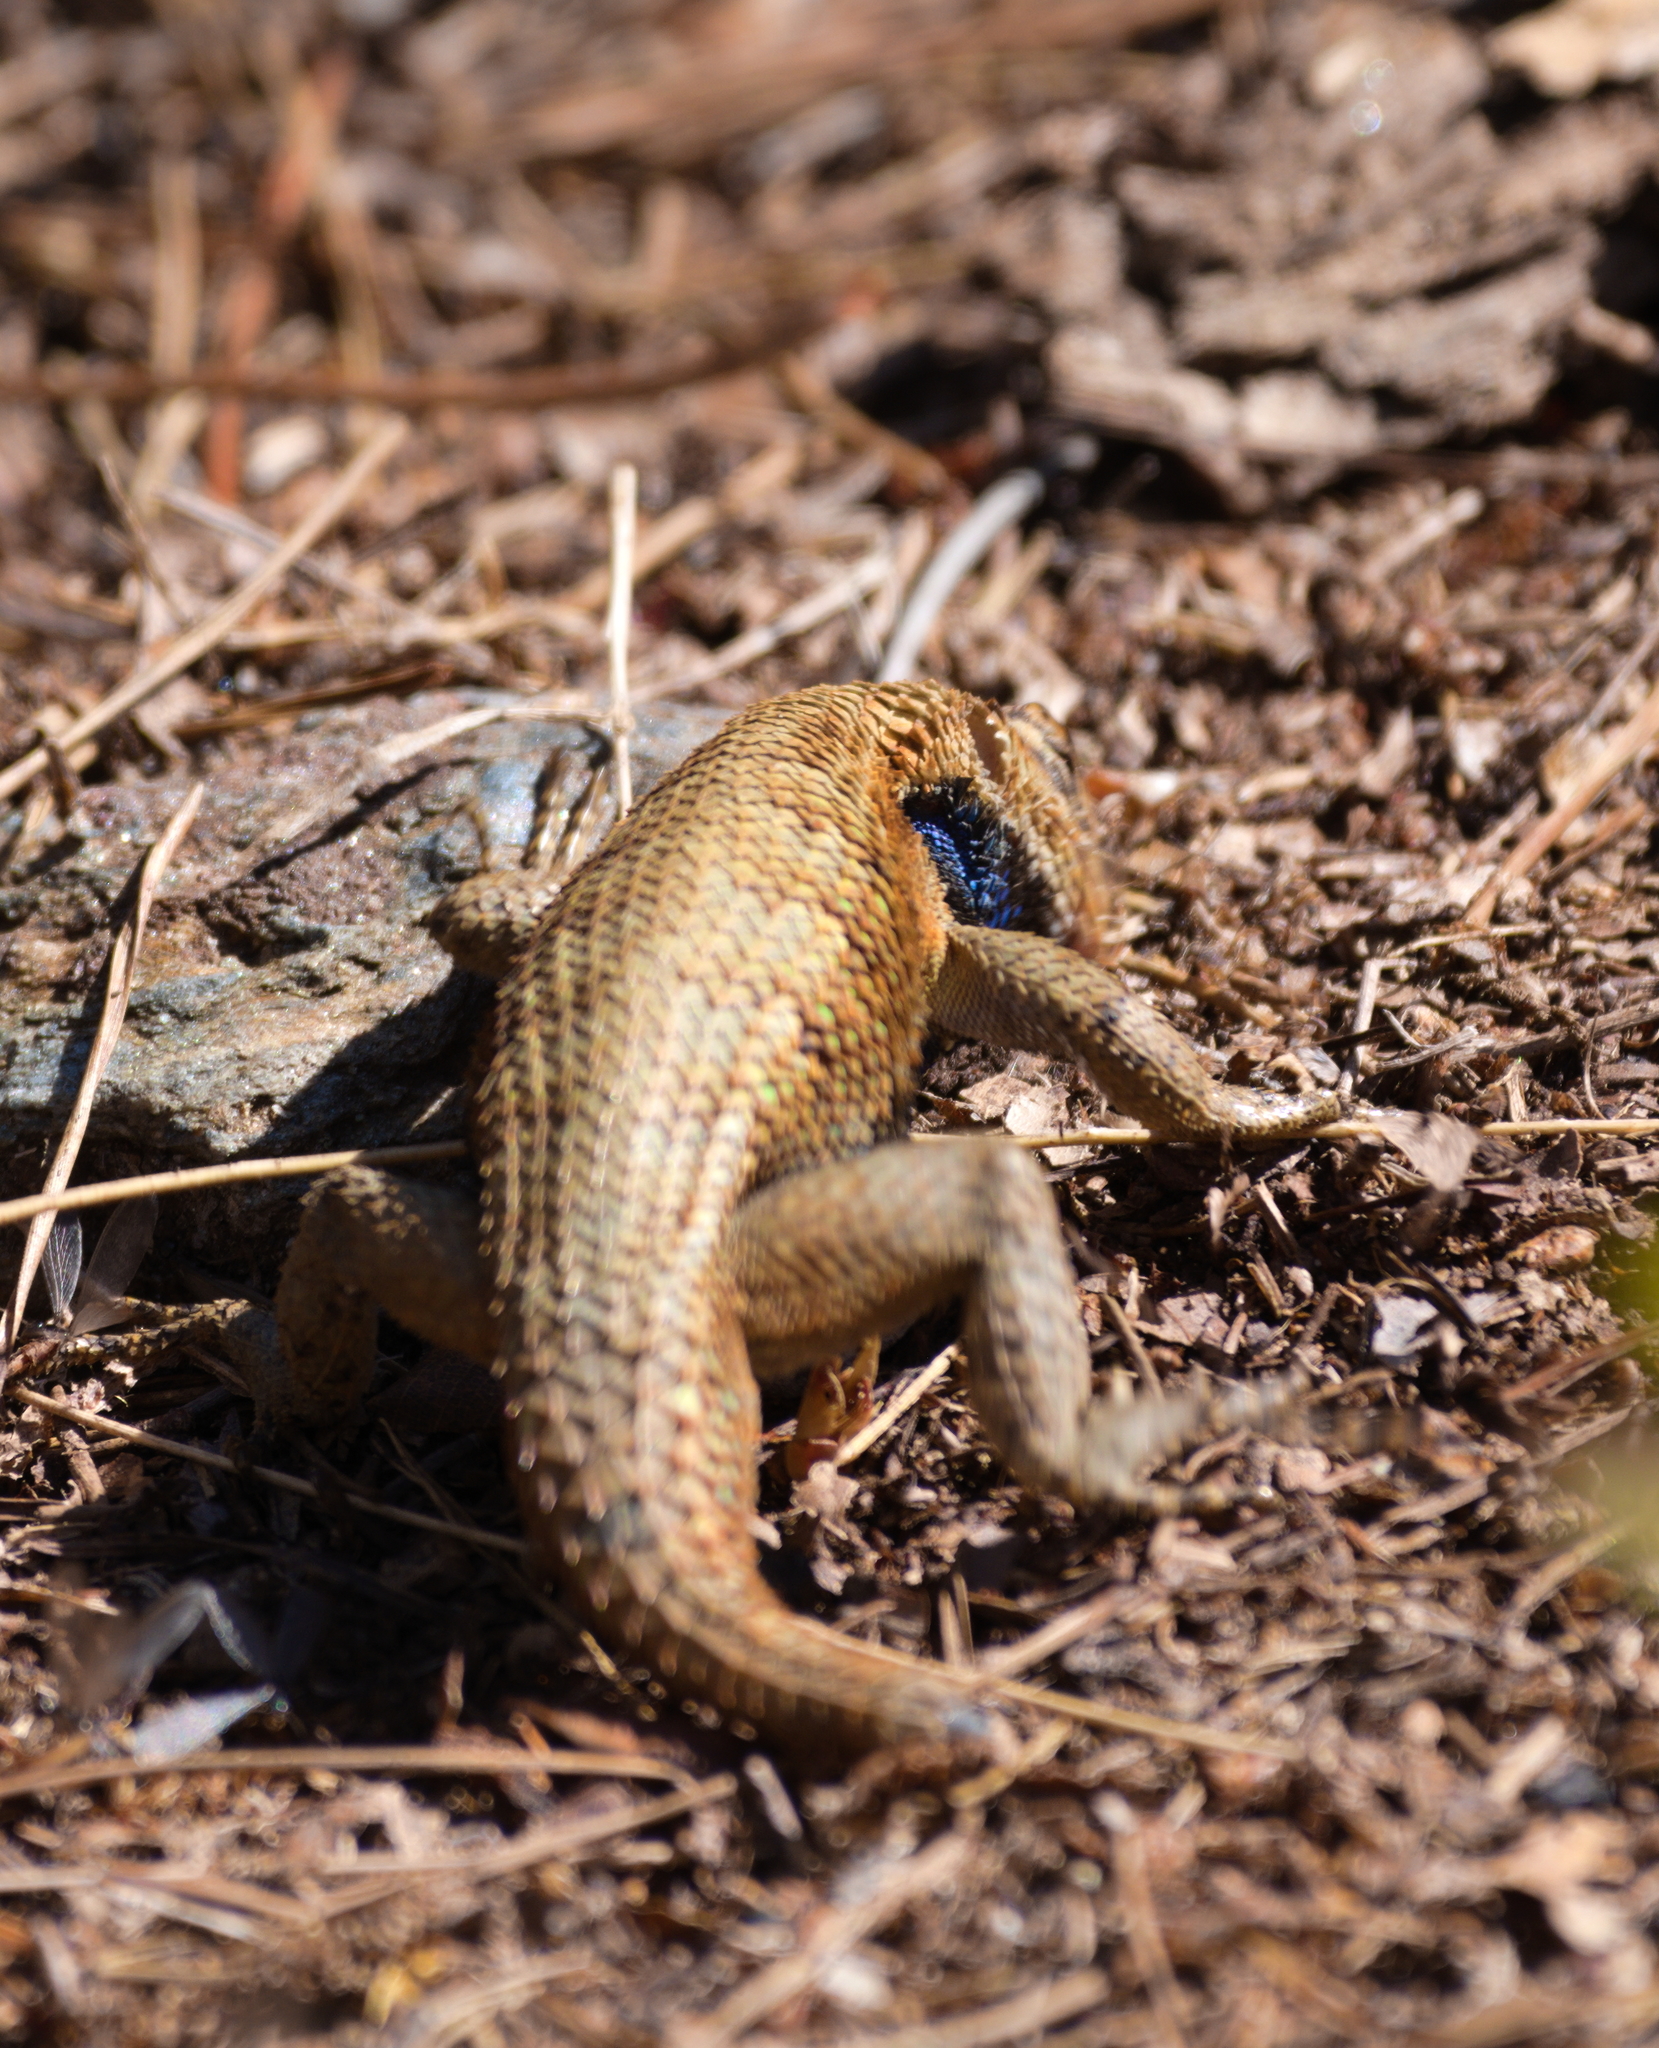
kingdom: Animalia
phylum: Chordata
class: Squamata
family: Phrynosomatidae
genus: Sceloporus
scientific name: Sceloporus undulatus
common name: Eastern fence lizard
